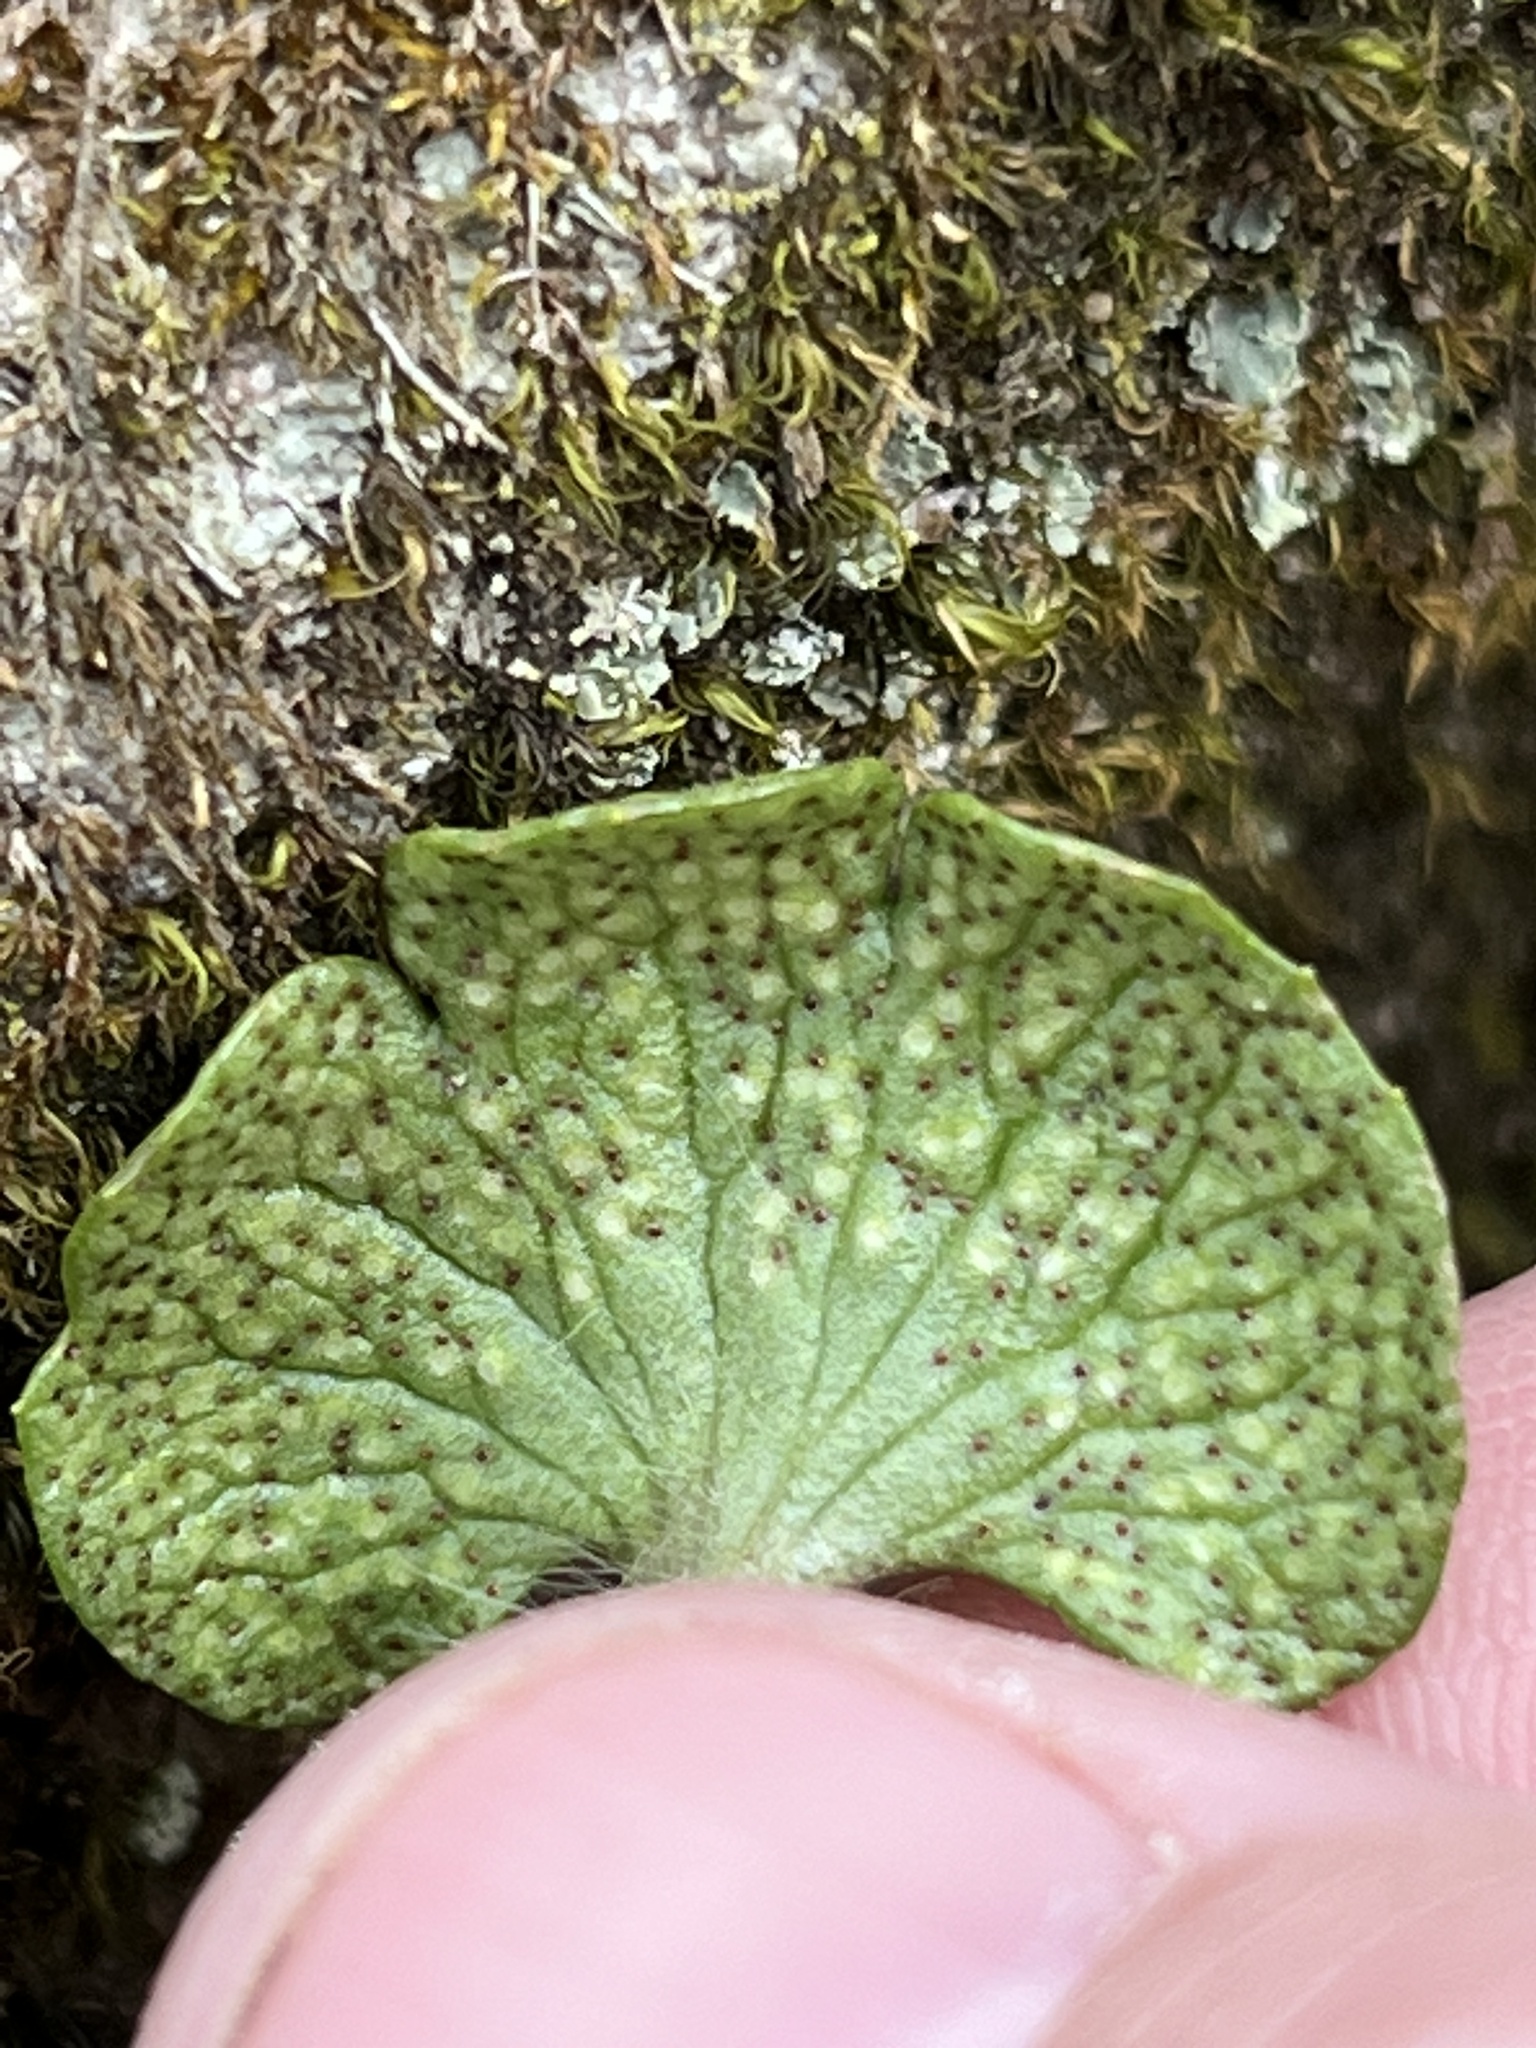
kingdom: Fungi
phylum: Basidiomycota
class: Pucciniomycetes
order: Pucciniales
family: Tranzscheliaceae
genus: Tranzschelia
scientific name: Tranzschelia arthurii
